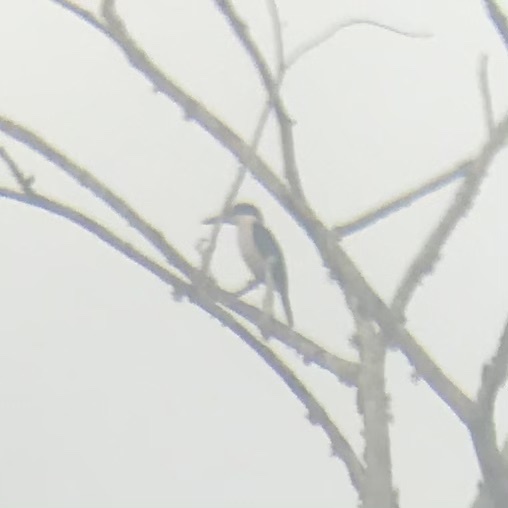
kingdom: Animalia
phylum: Chordata
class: Aves
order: Coraciiformes
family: Alcedinidae
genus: Todiramphus
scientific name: Todiramphus chloris
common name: Collared kingfisher
